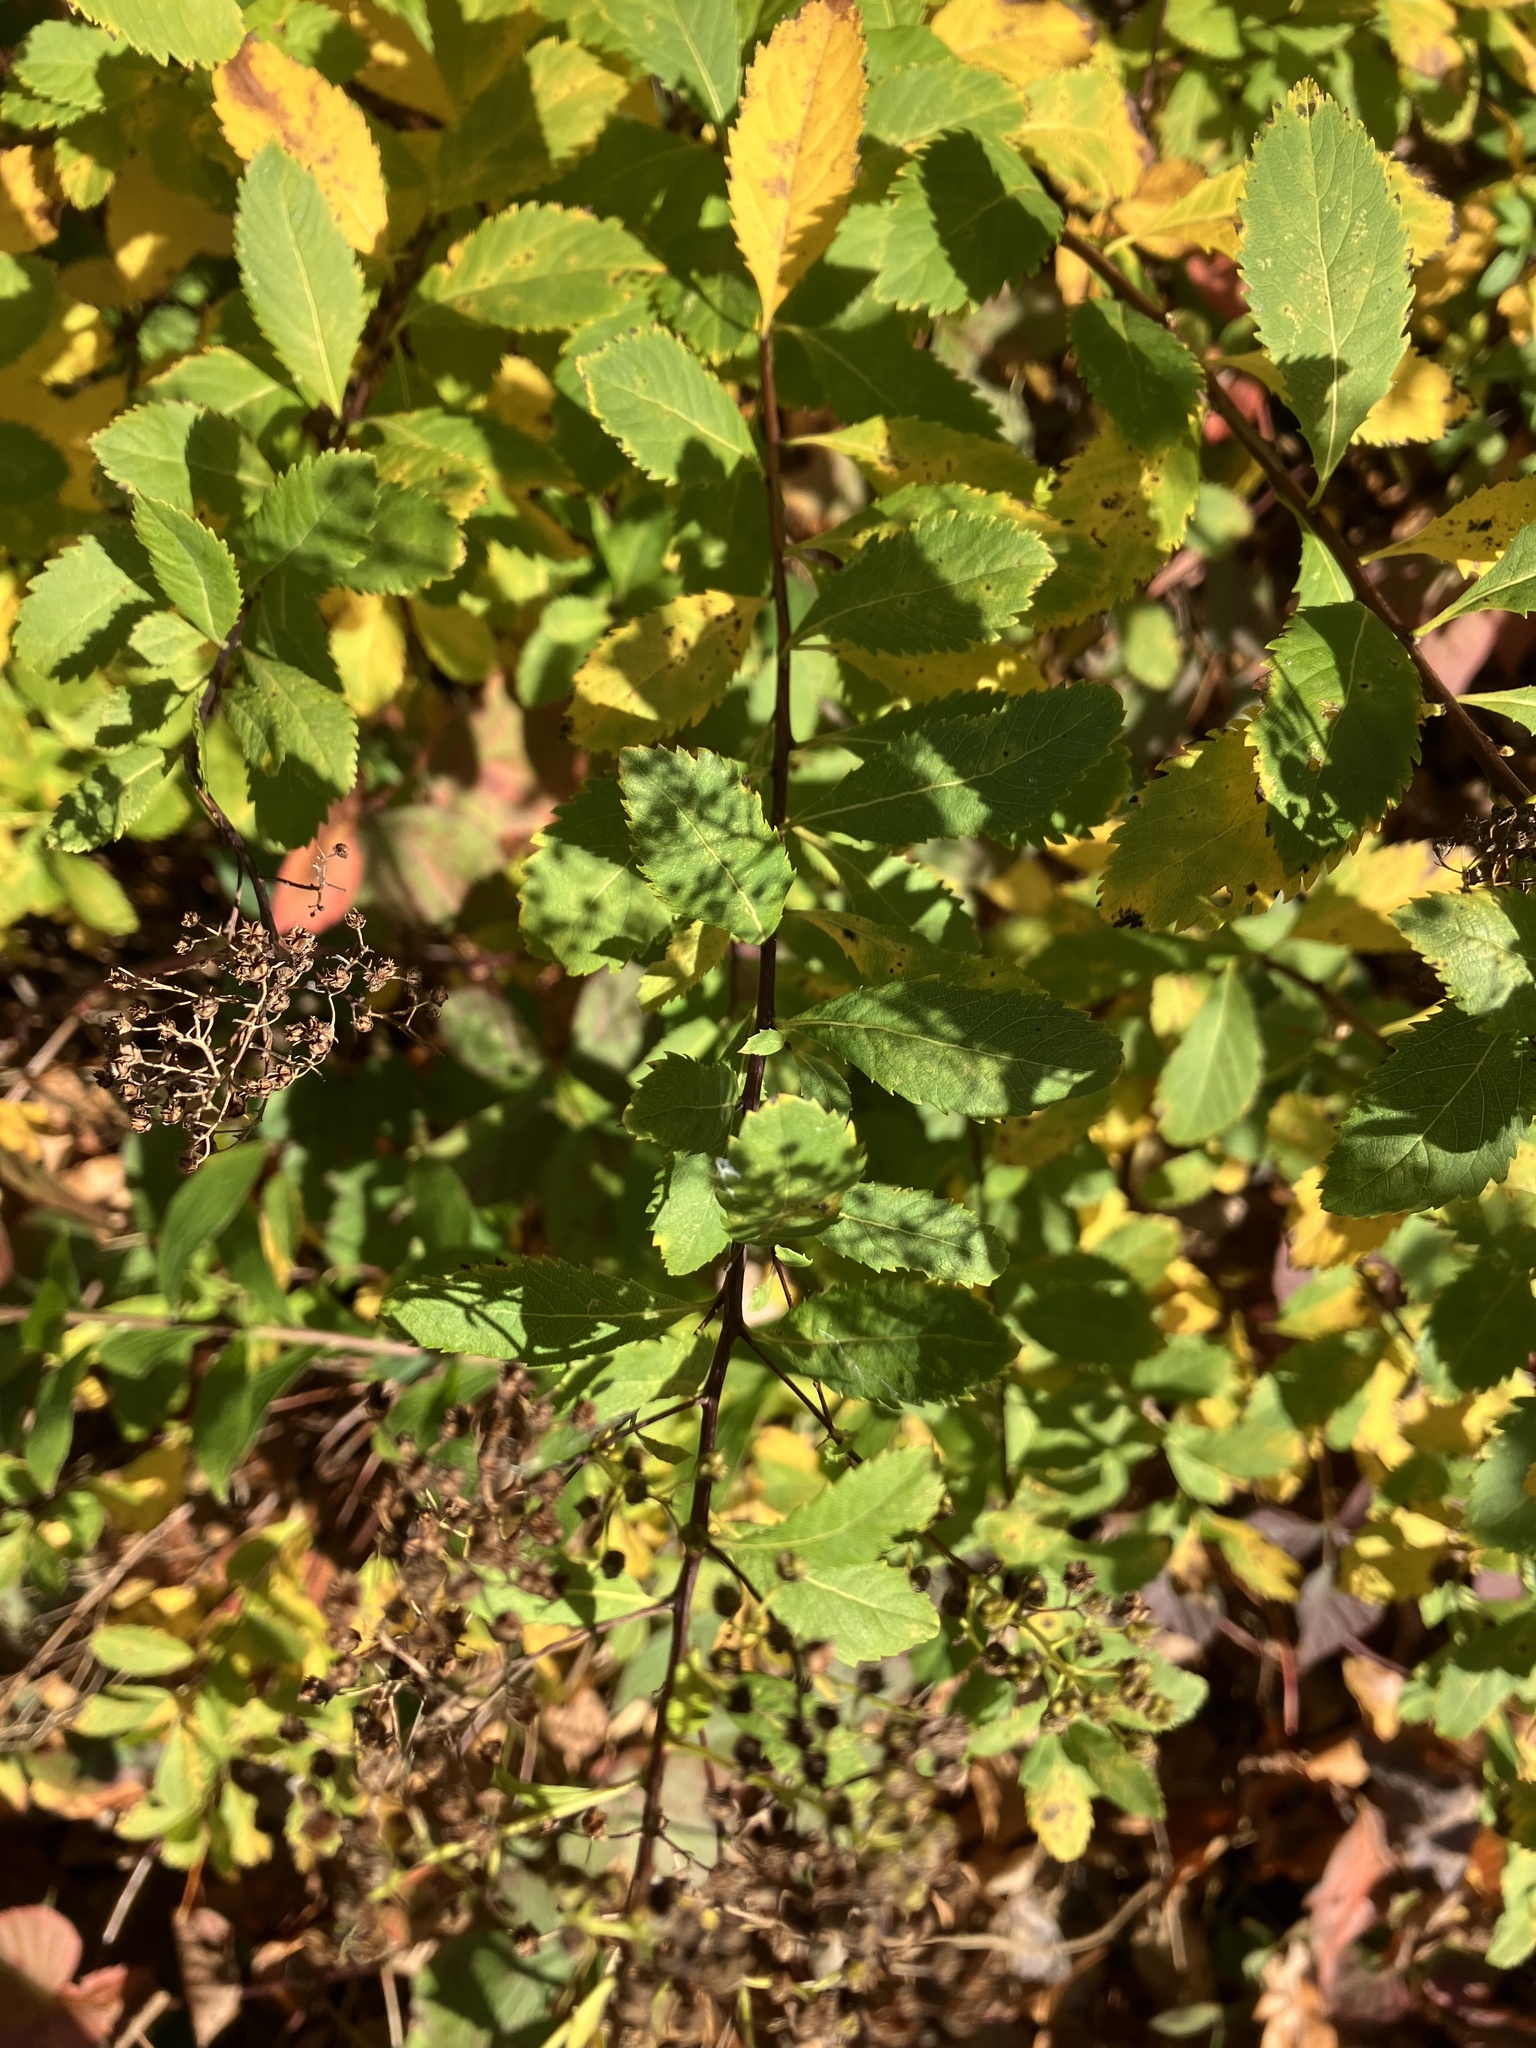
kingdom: Plantae
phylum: Tracheophyta
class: Magnoliopsida
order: Rosales
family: Rosaceae
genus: Spiraea
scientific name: Spiraea alba
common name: Pale bridewort
